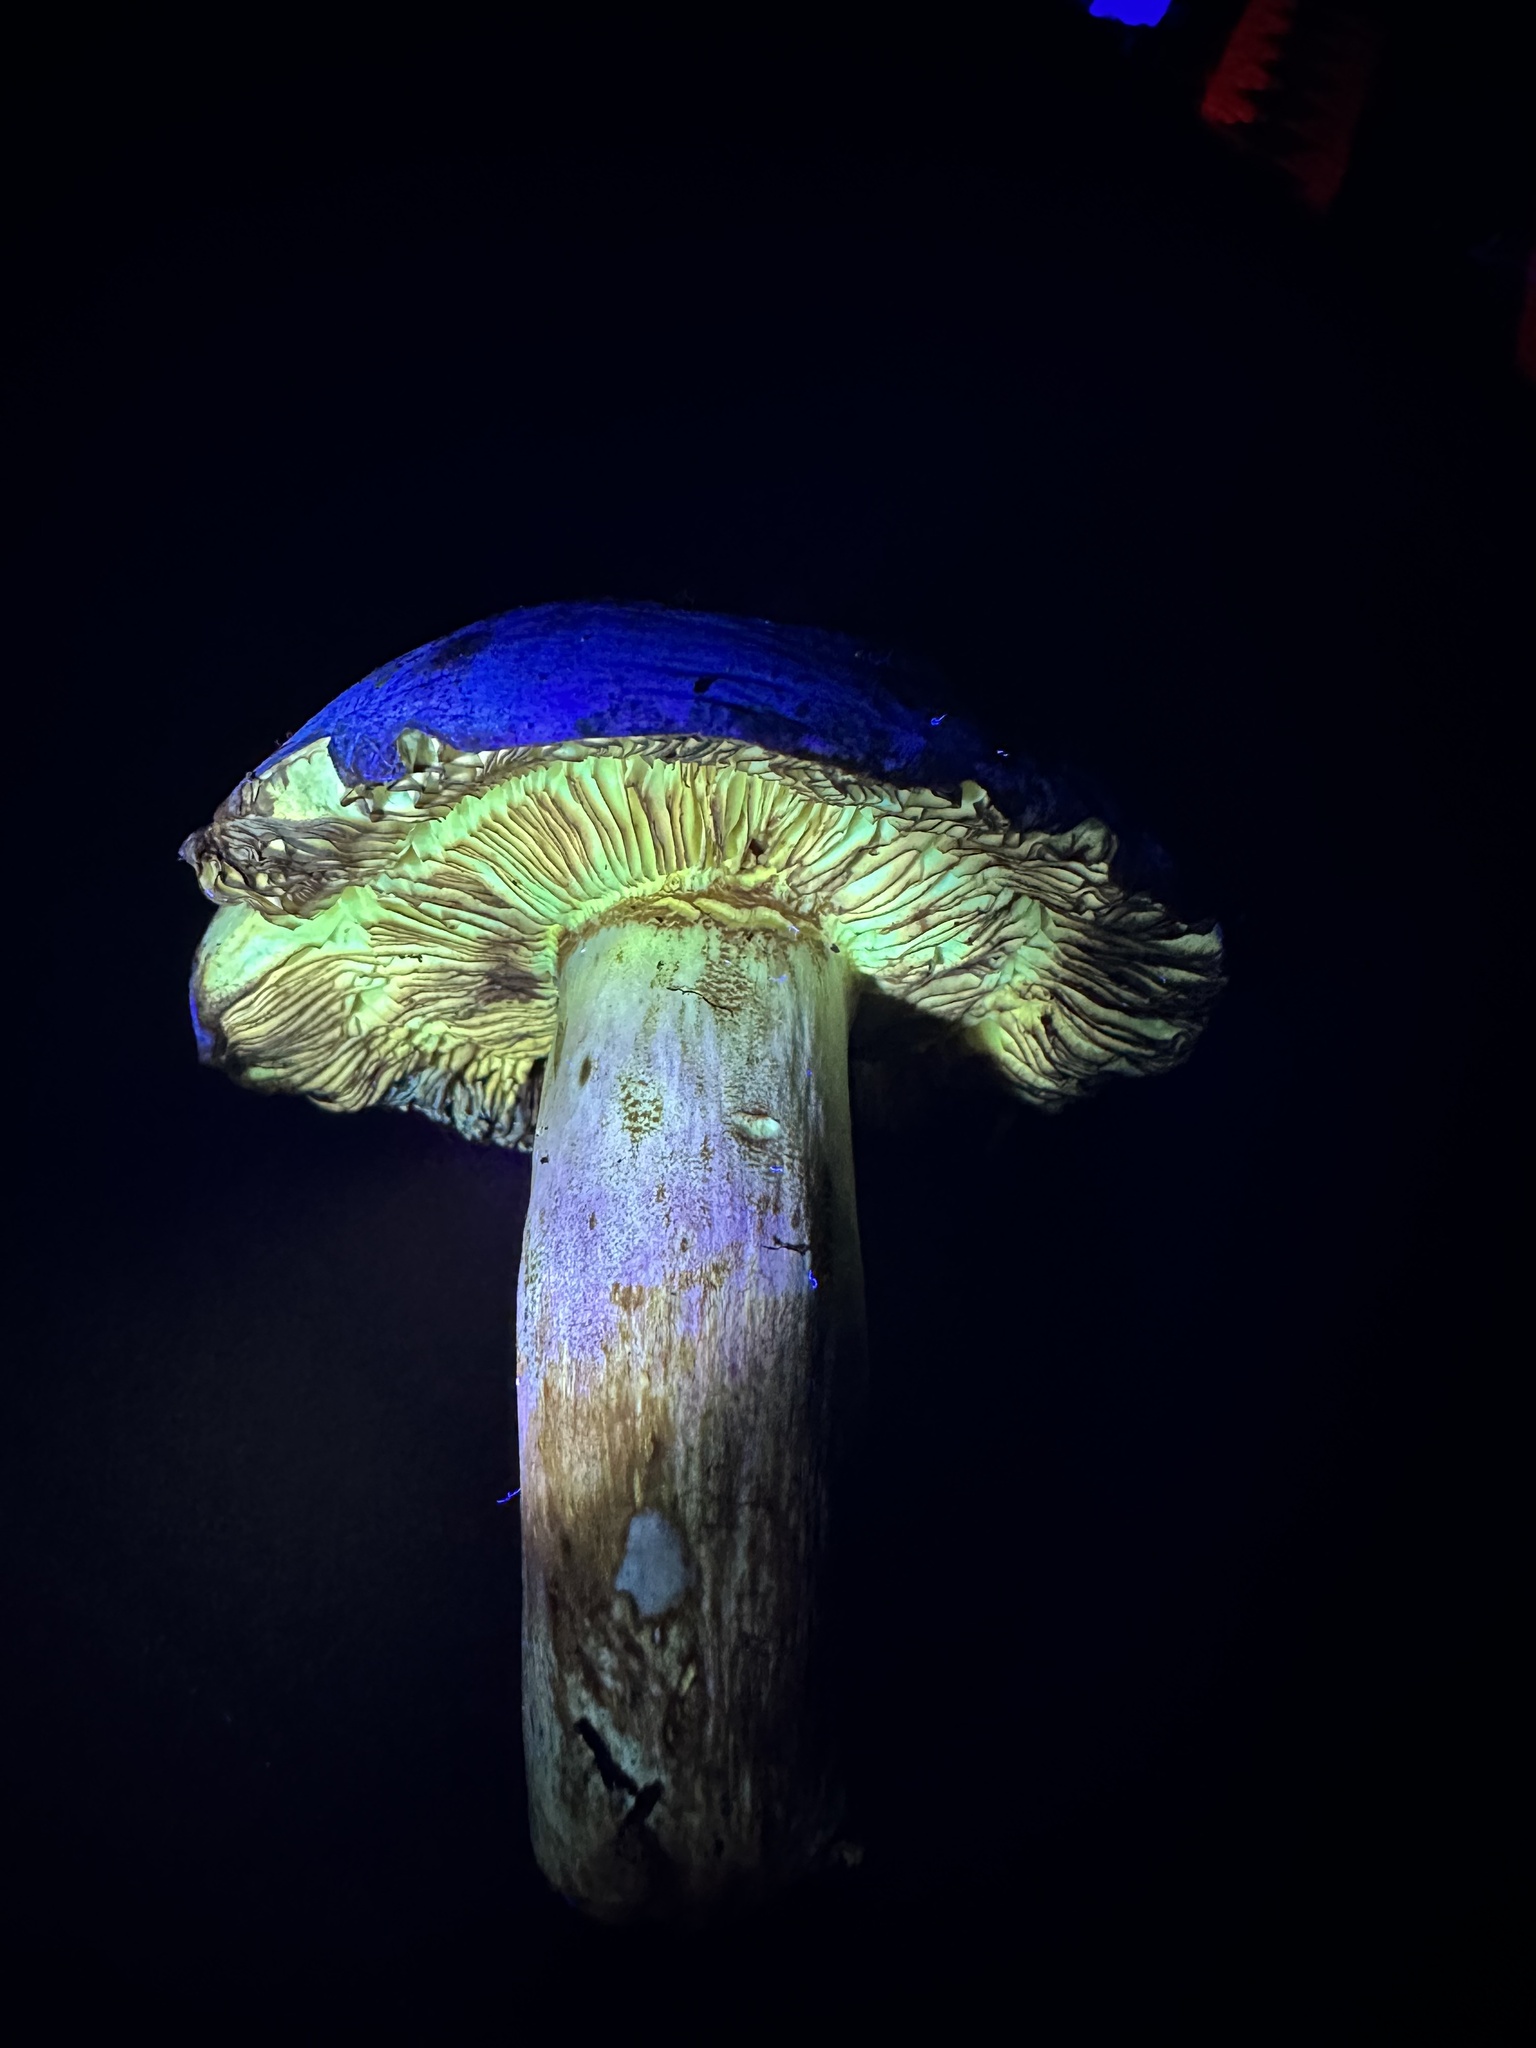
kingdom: Fungi
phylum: Basidiomycota
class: Agaricomycetes
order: Agaricales
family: Entolomataceae
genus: Entoloma
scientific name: Entoloma medianox
